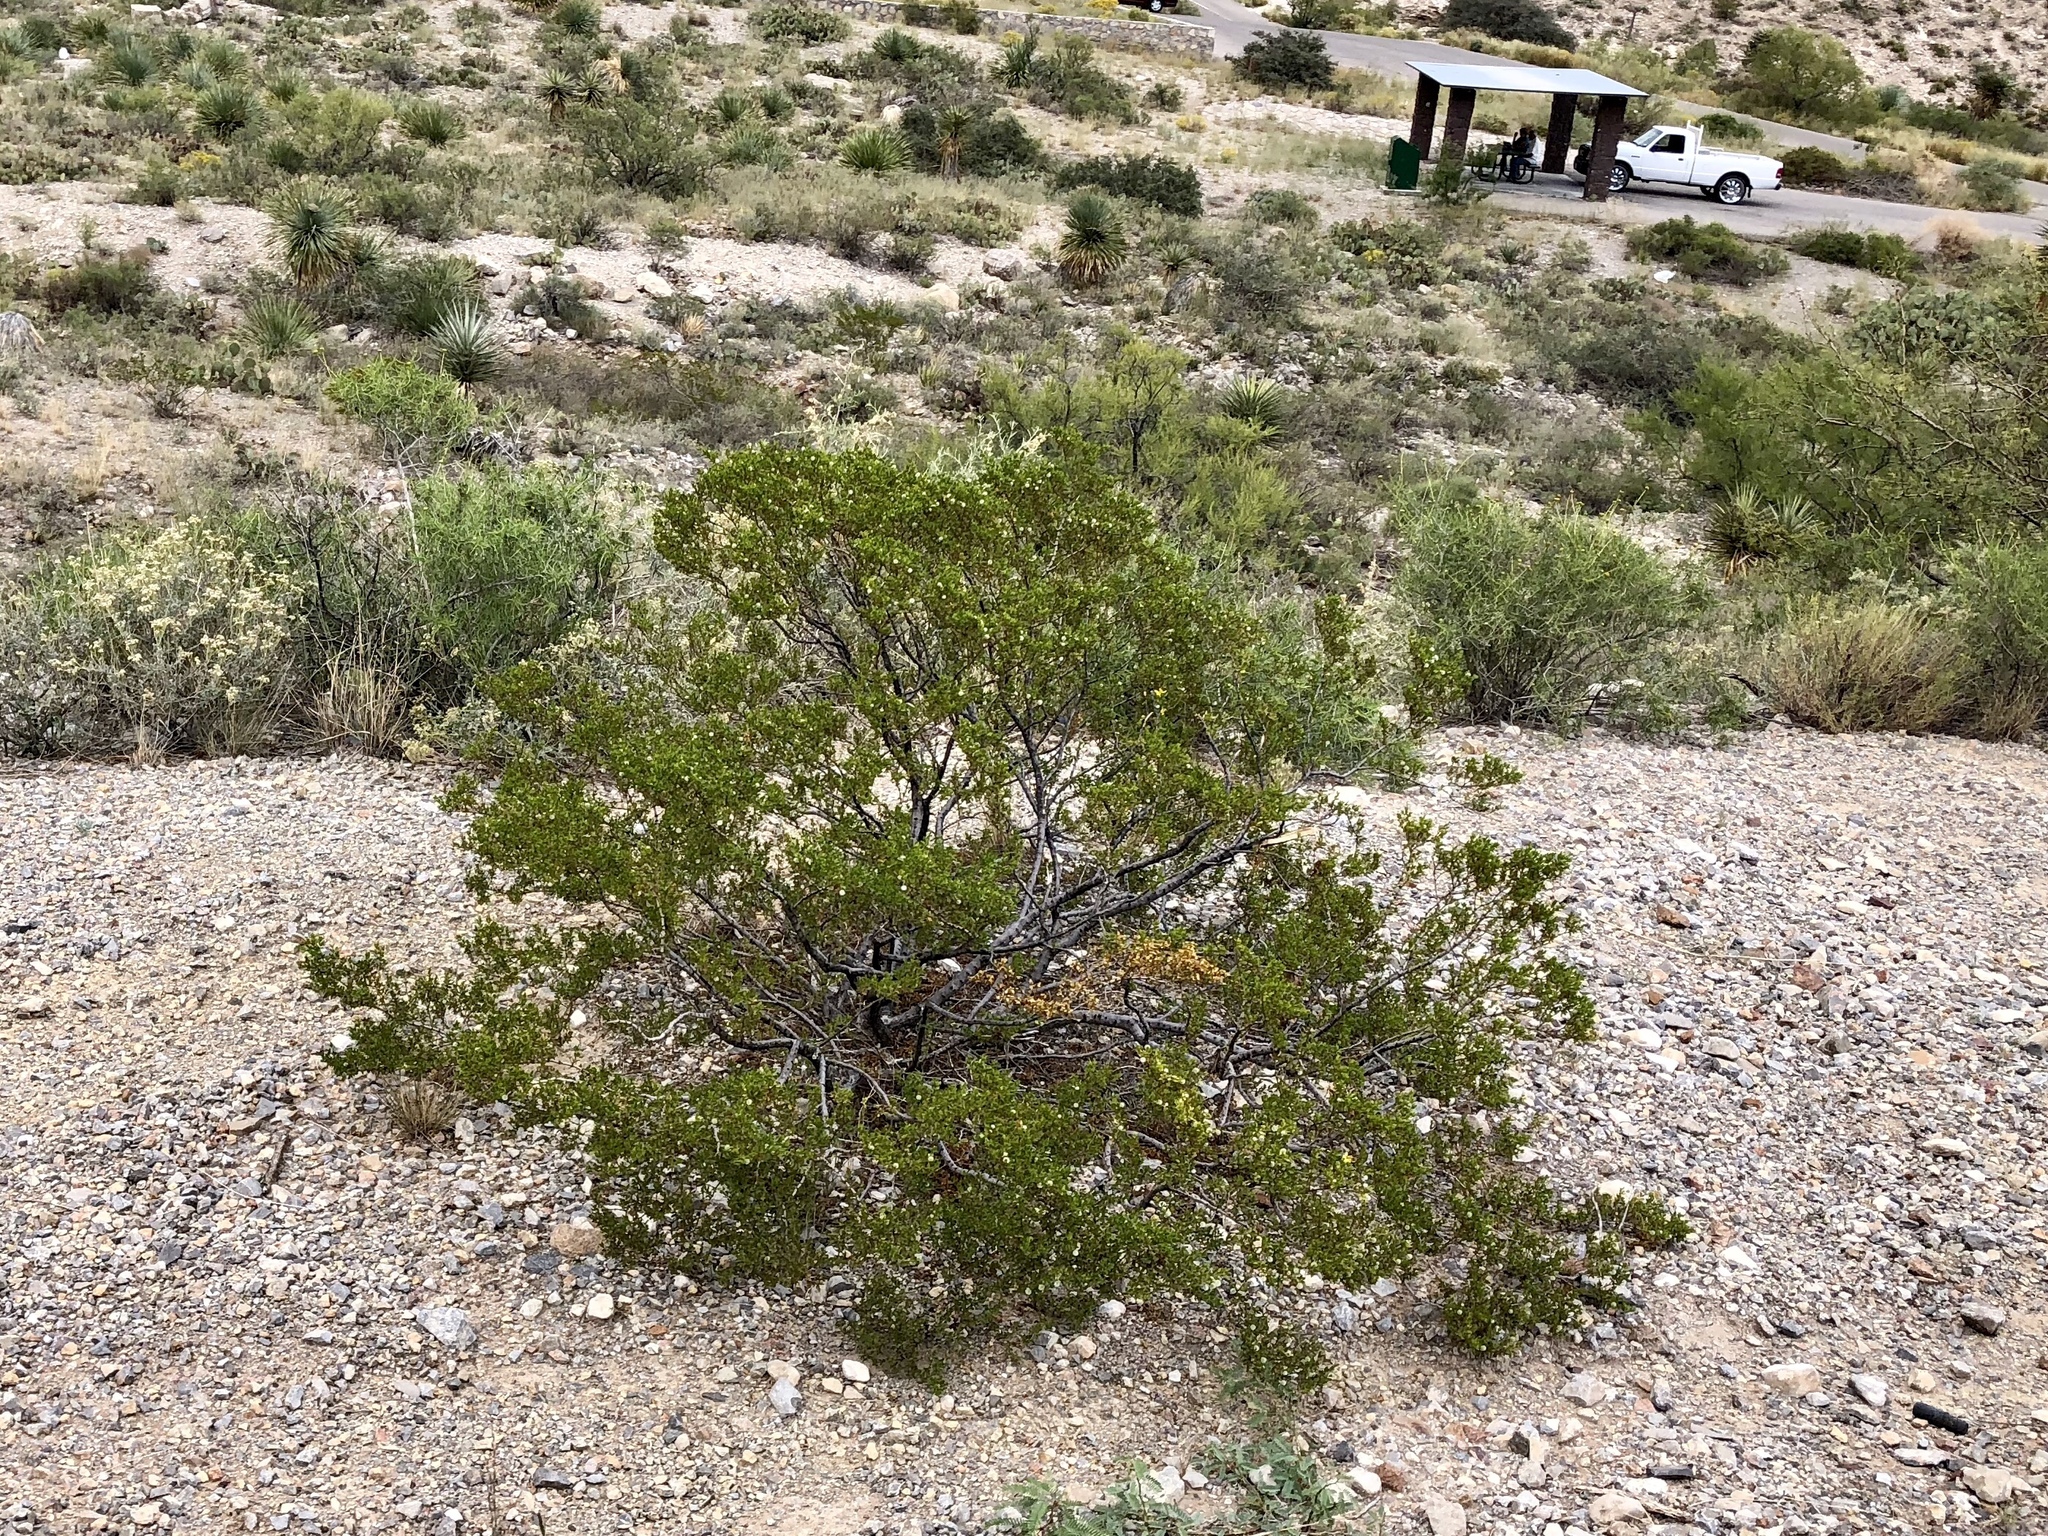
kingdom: Plantae
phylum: Tracheophyta
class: Magnoliopsida
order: Zygophyllales
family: Zygophyllaceae
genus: Larrea
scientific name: Larrea tridentata
